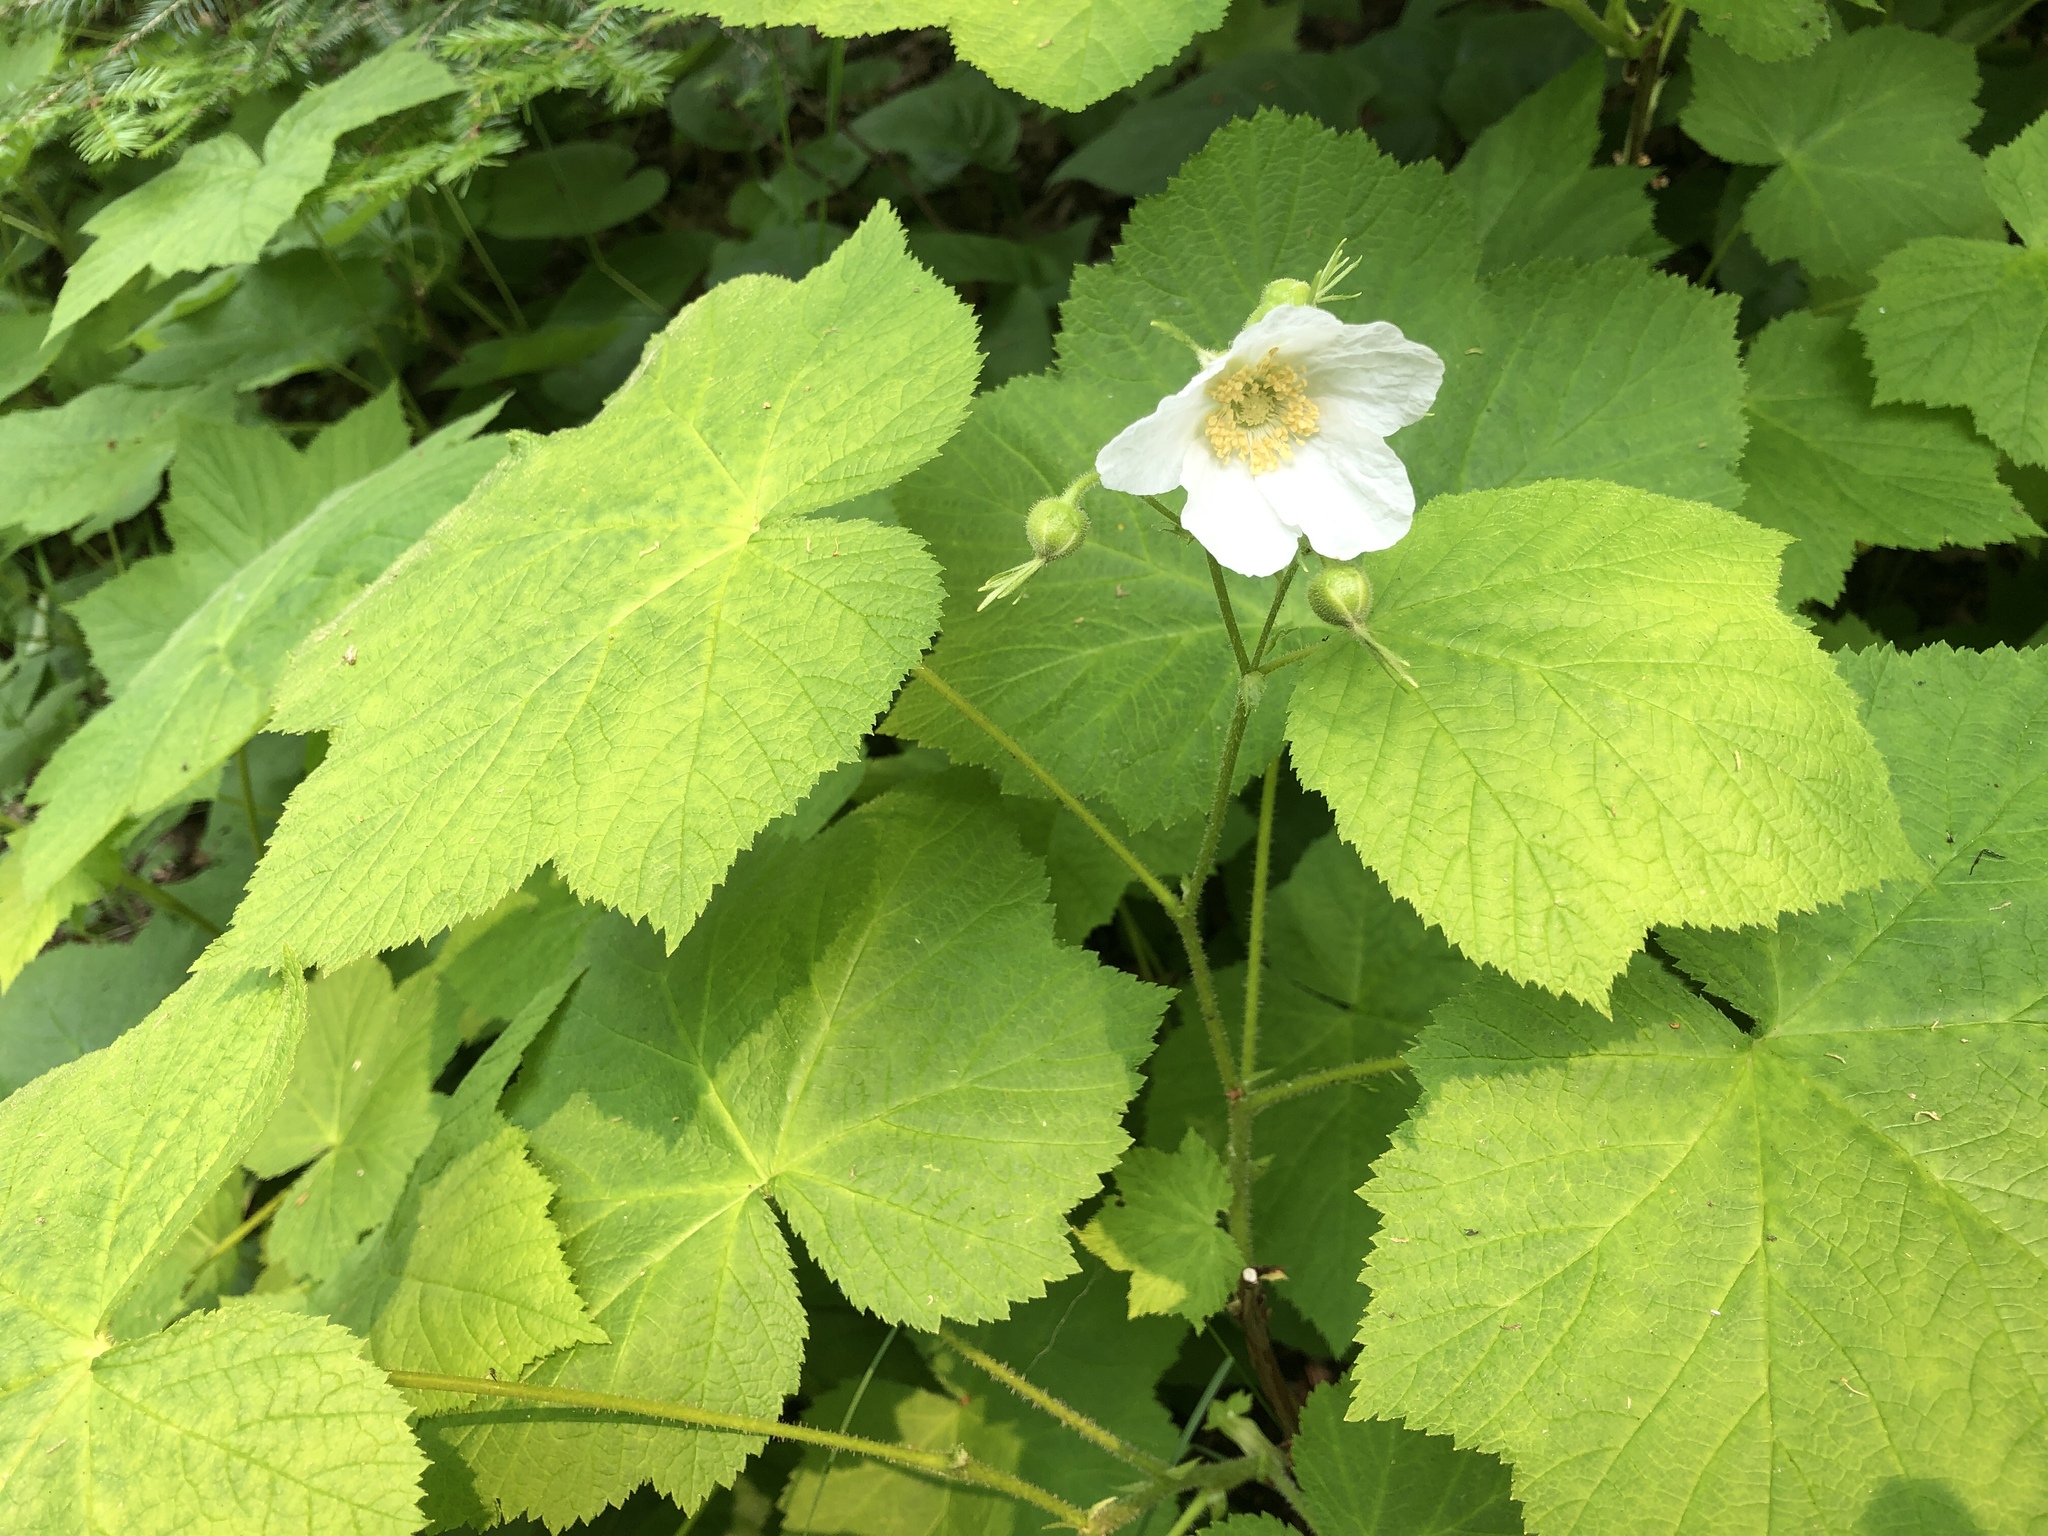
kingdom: Plantae
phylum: Tracheophyta
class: Magnoliopsida
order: Rosales
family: Rosaceae
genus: Rubus
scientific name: Rubus parviflorus
